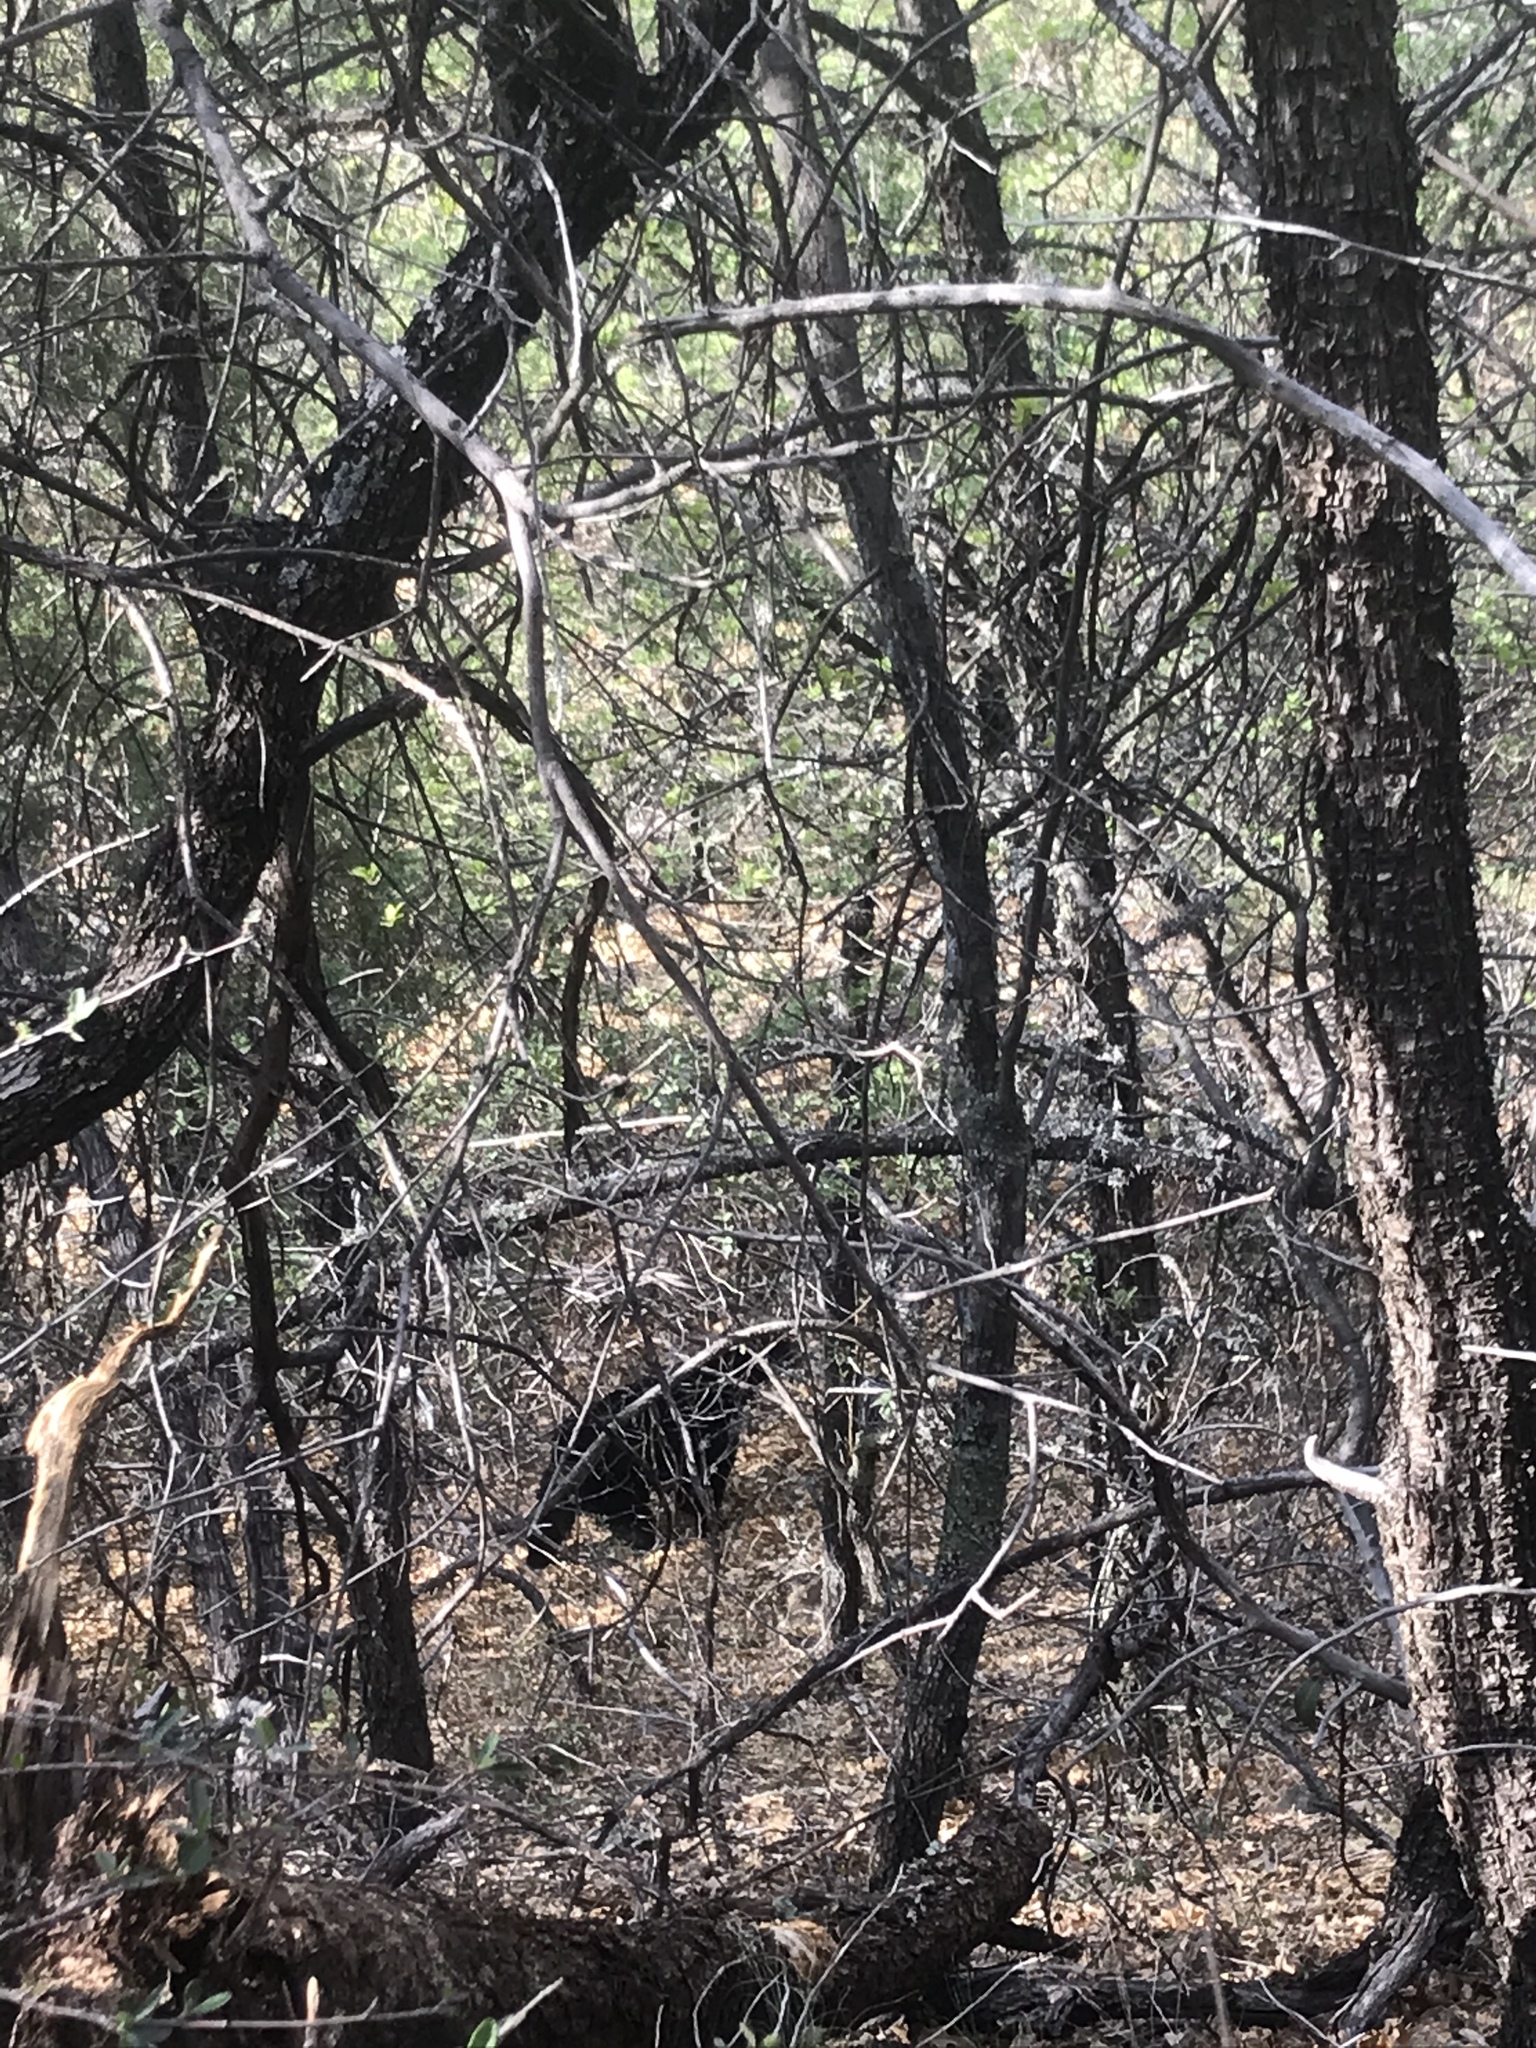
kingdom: Animalia
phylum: Chordata
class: Mammalia
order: Carnivora
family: Ursidae
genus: Ursus
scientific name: Ursus americanus
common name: American black bear
